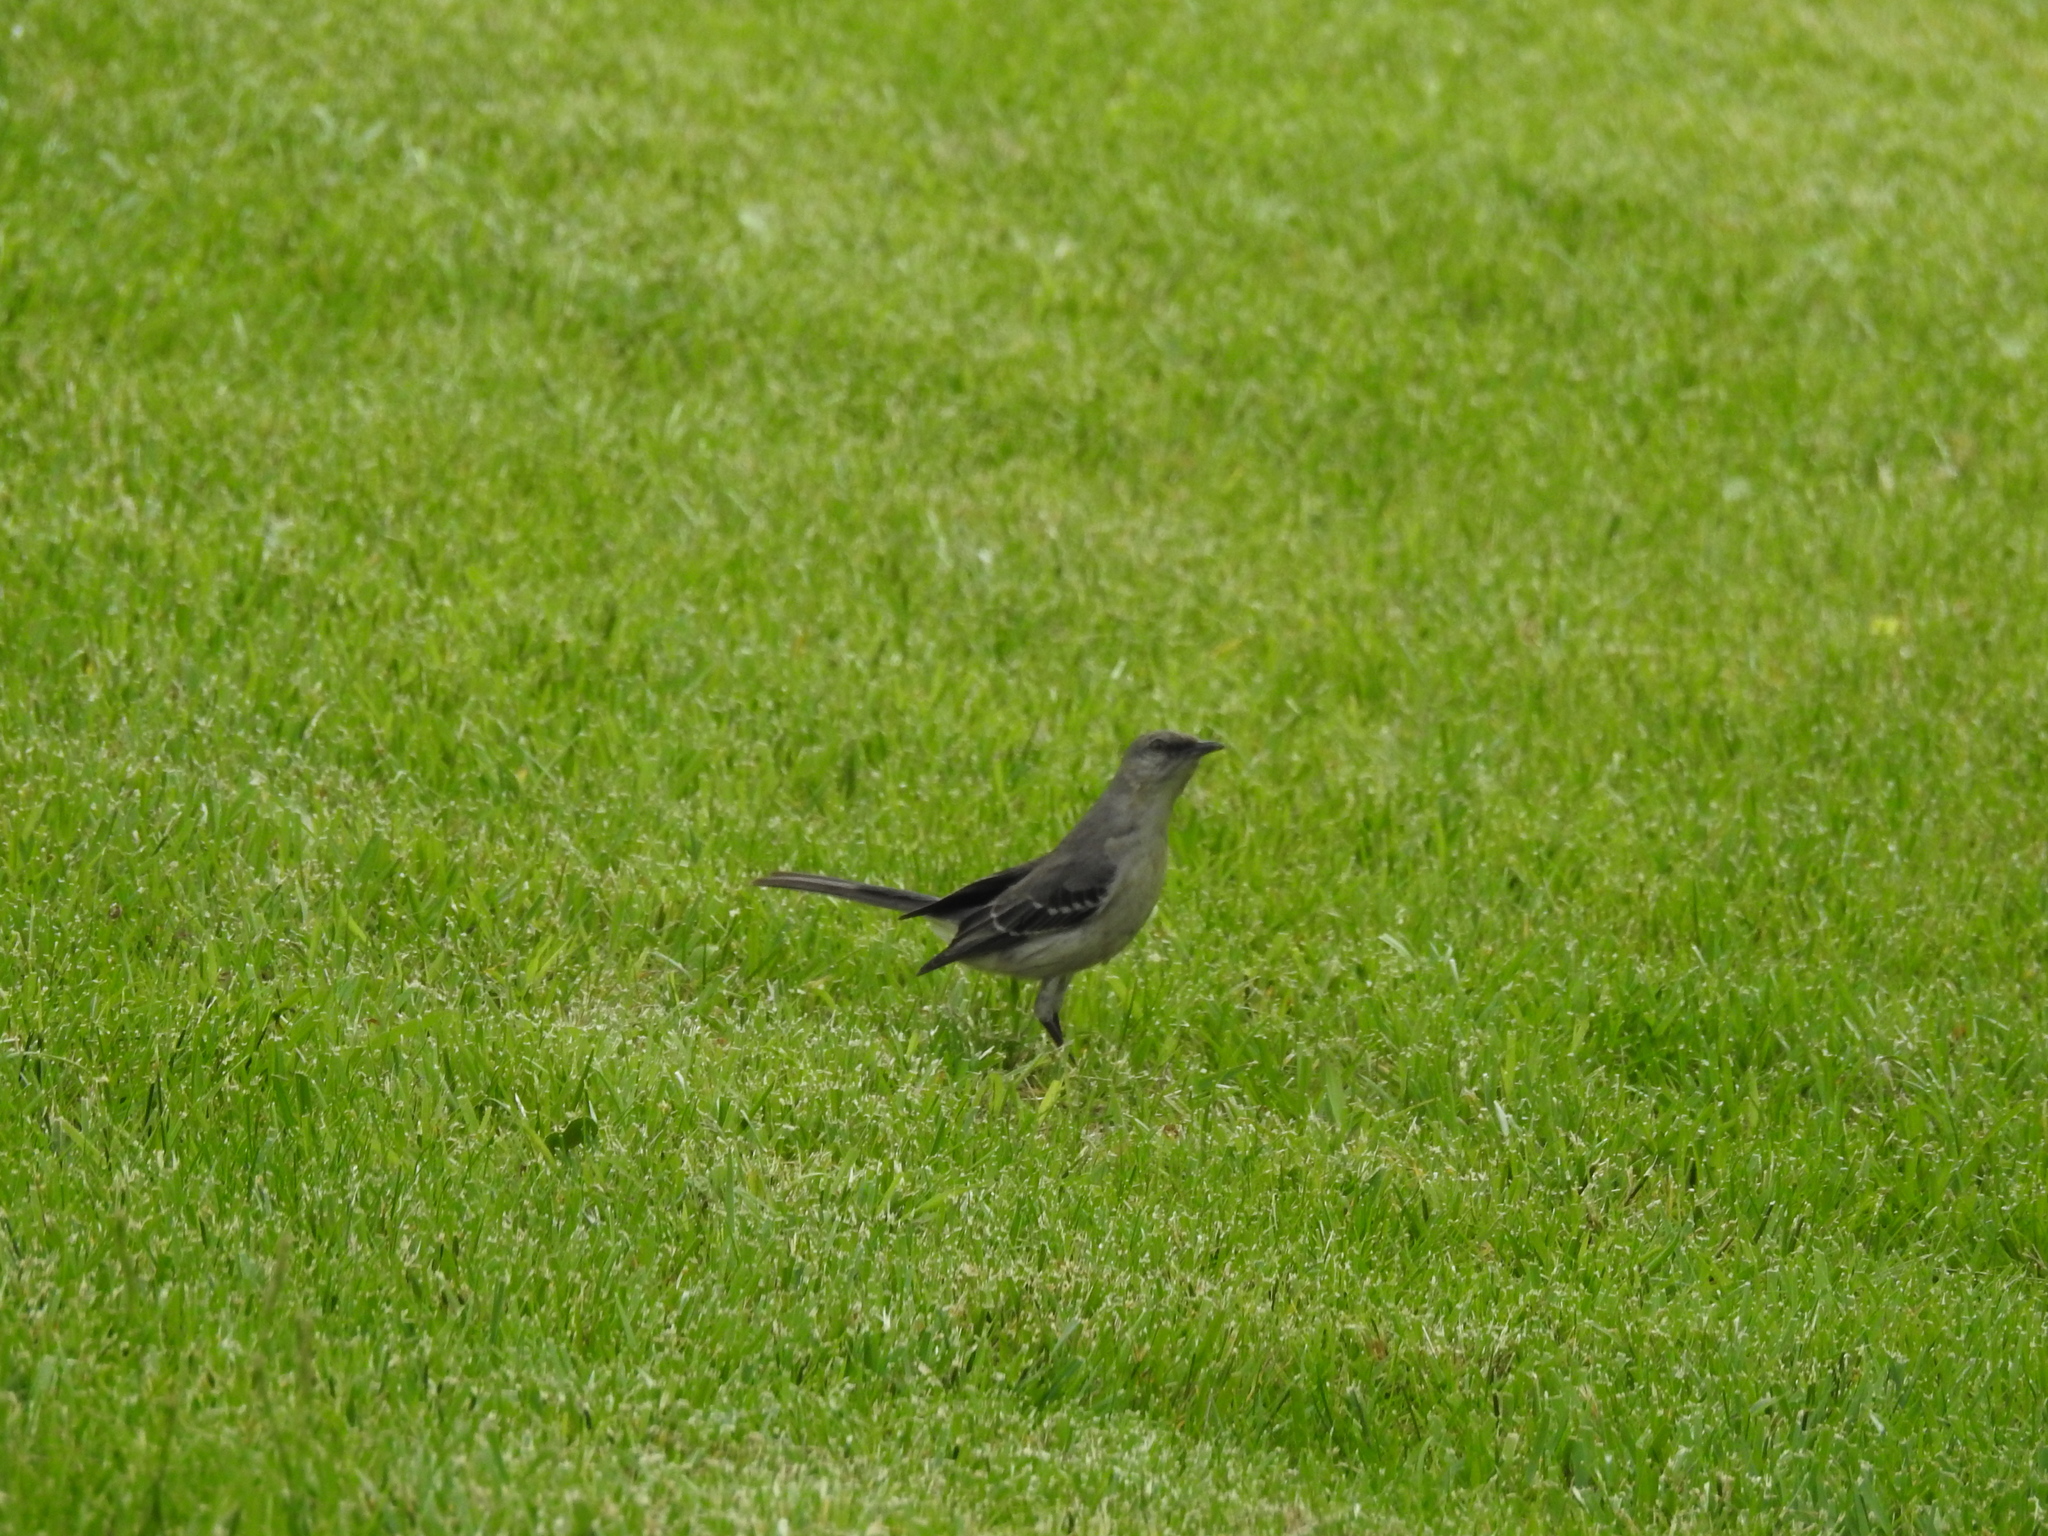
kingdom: Animalia
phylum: Chordata
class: Aves
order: Passeriformes
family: Mimidae
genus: Mimus
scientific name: Mimus polyglottos
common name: Northern mockingbird
